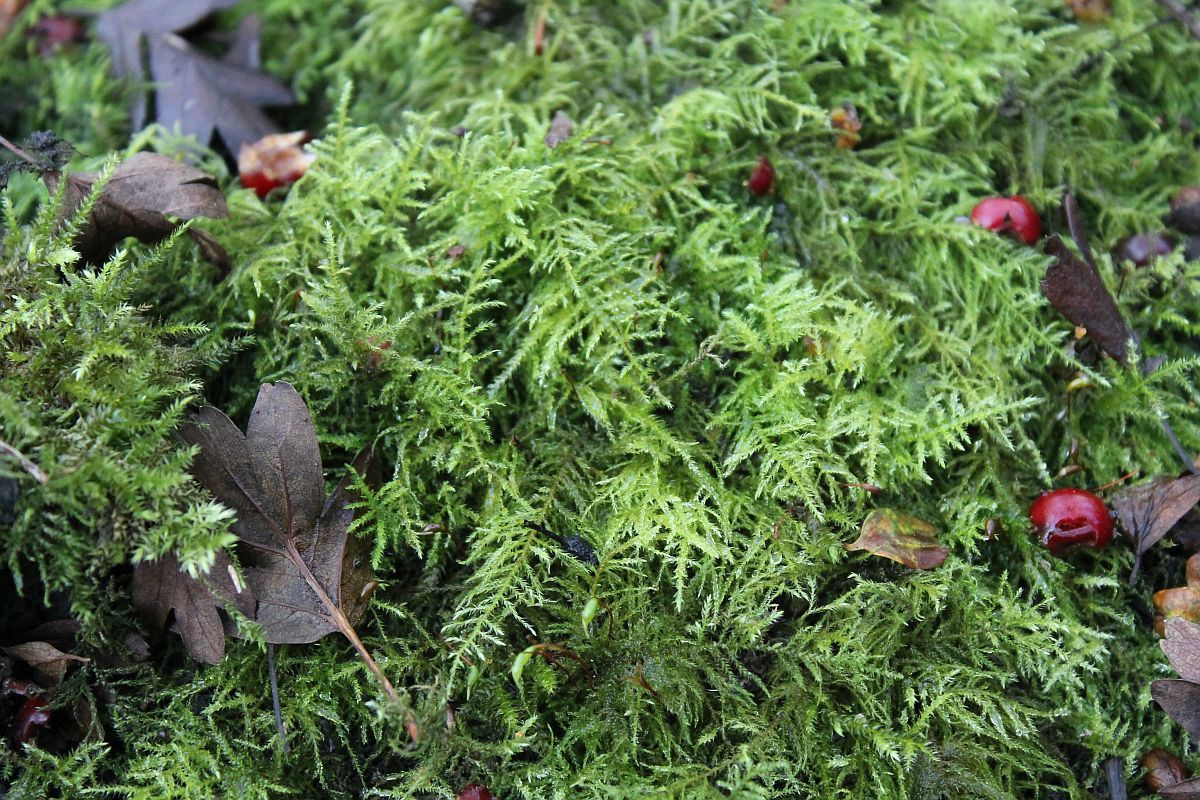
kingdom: Plantae
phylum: Bryophyta
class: Bryopsida
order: Hypnales
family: Brachytheciaceae
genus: Kindbergia
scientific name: Kindbergia praelonga
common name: Slender beaked moss
